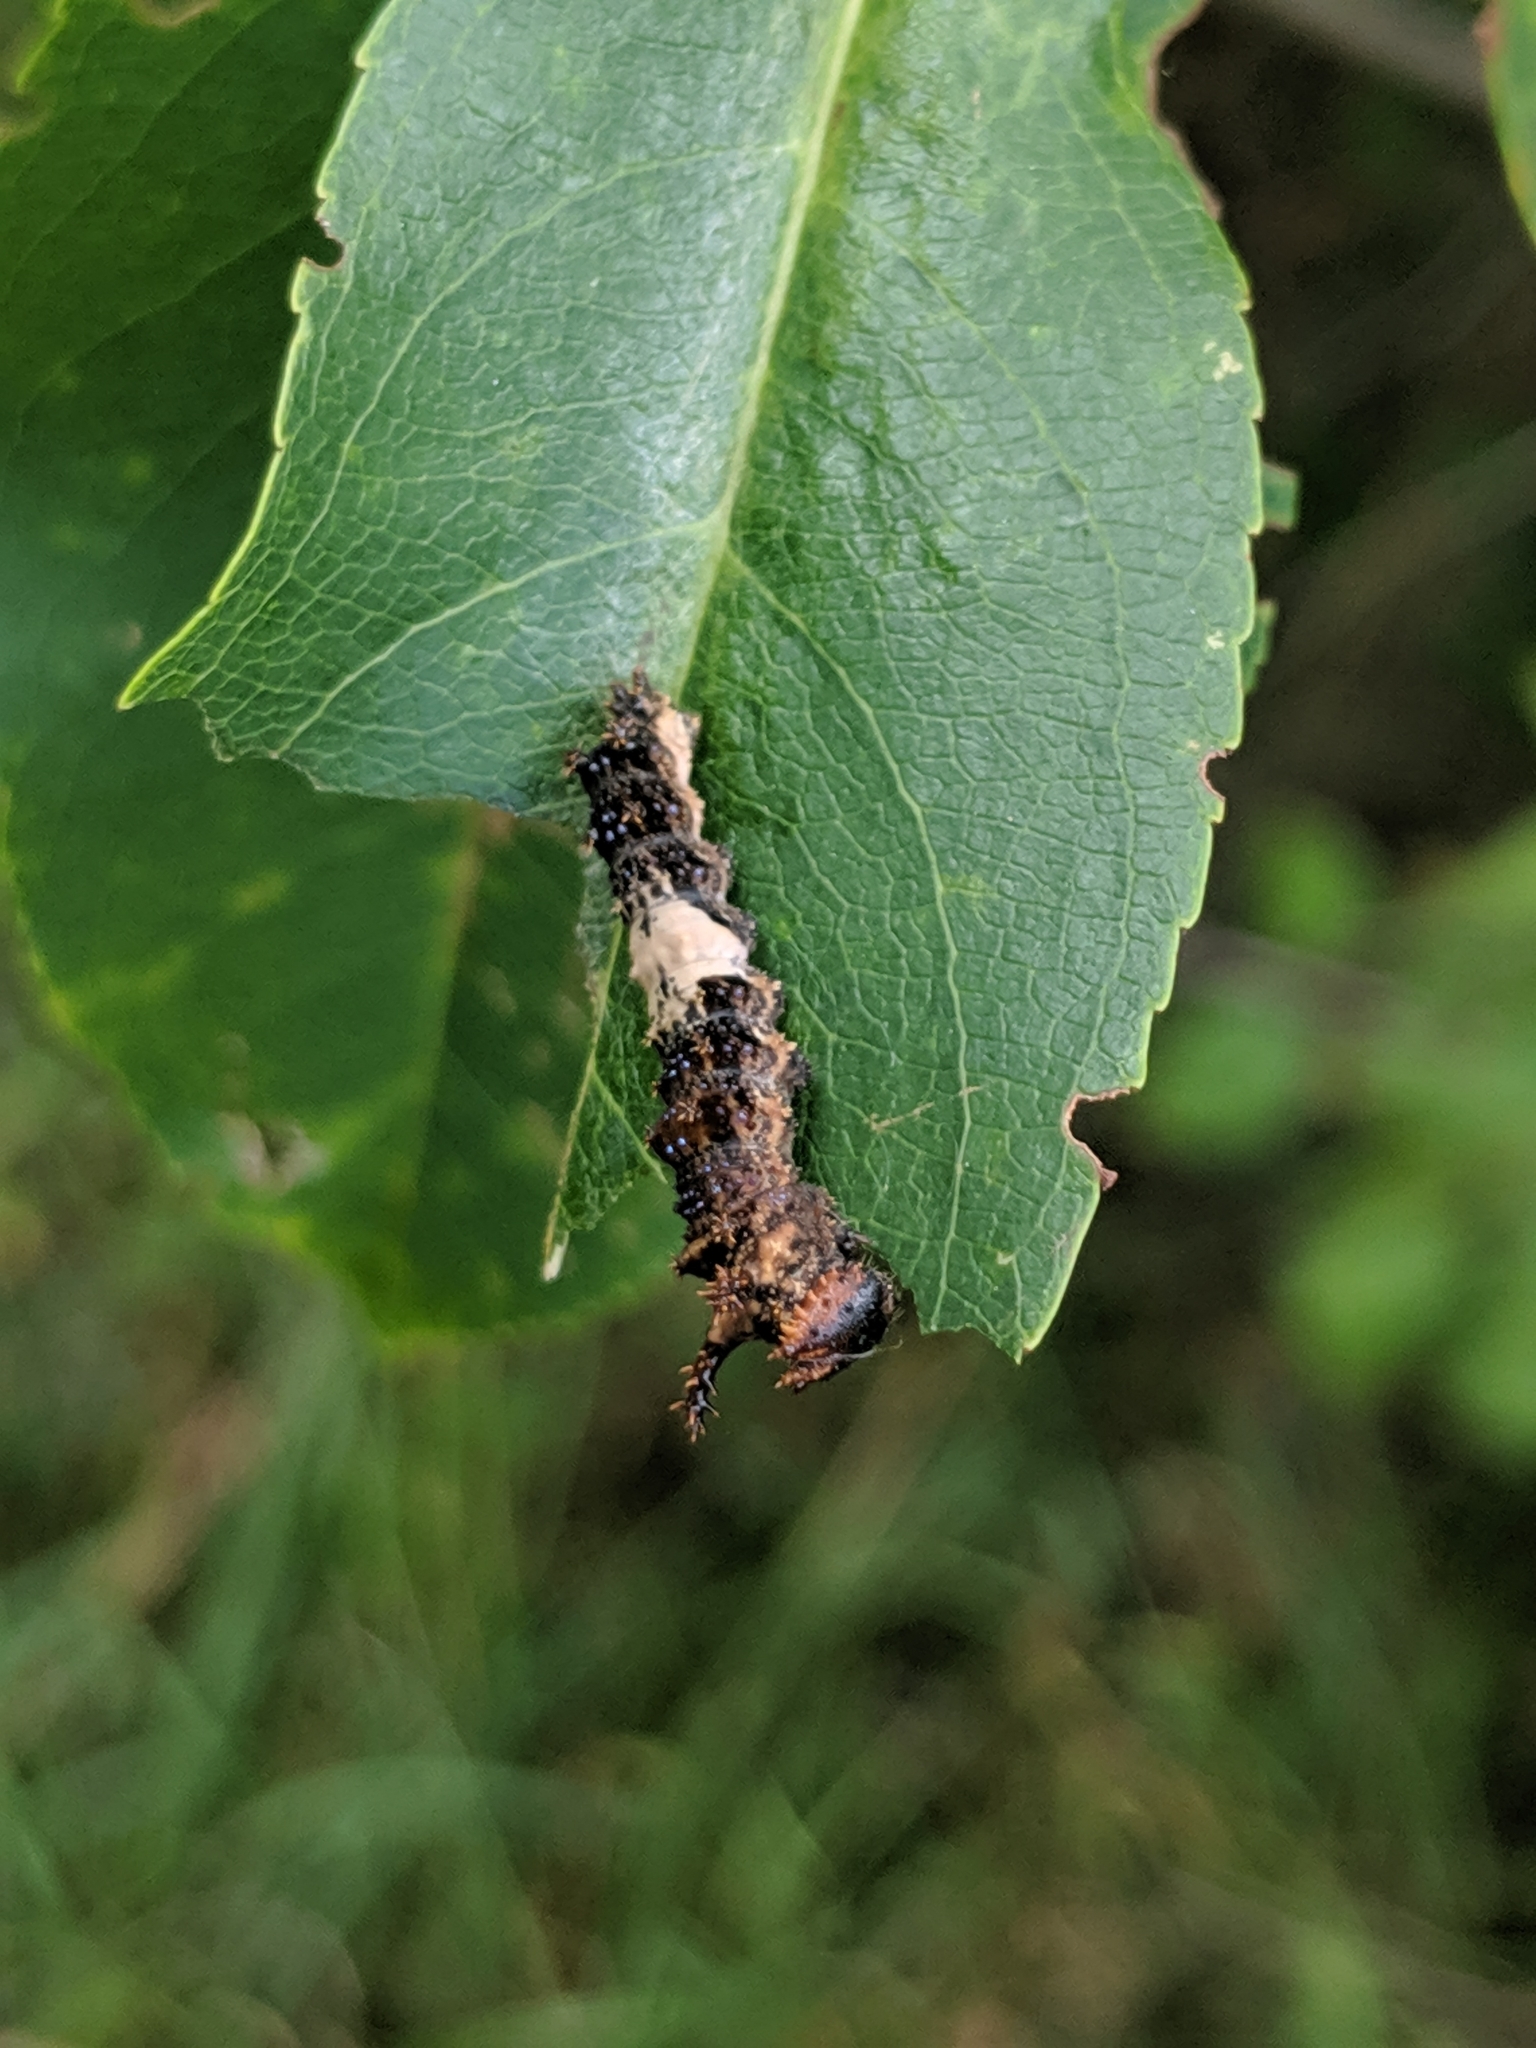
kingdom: Animalia
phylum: Arthropoda
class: Insecta
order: Lepidoptera
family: Nymphalidae
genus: Limenitis
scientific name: Limenitis archippus
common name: Viceroy
